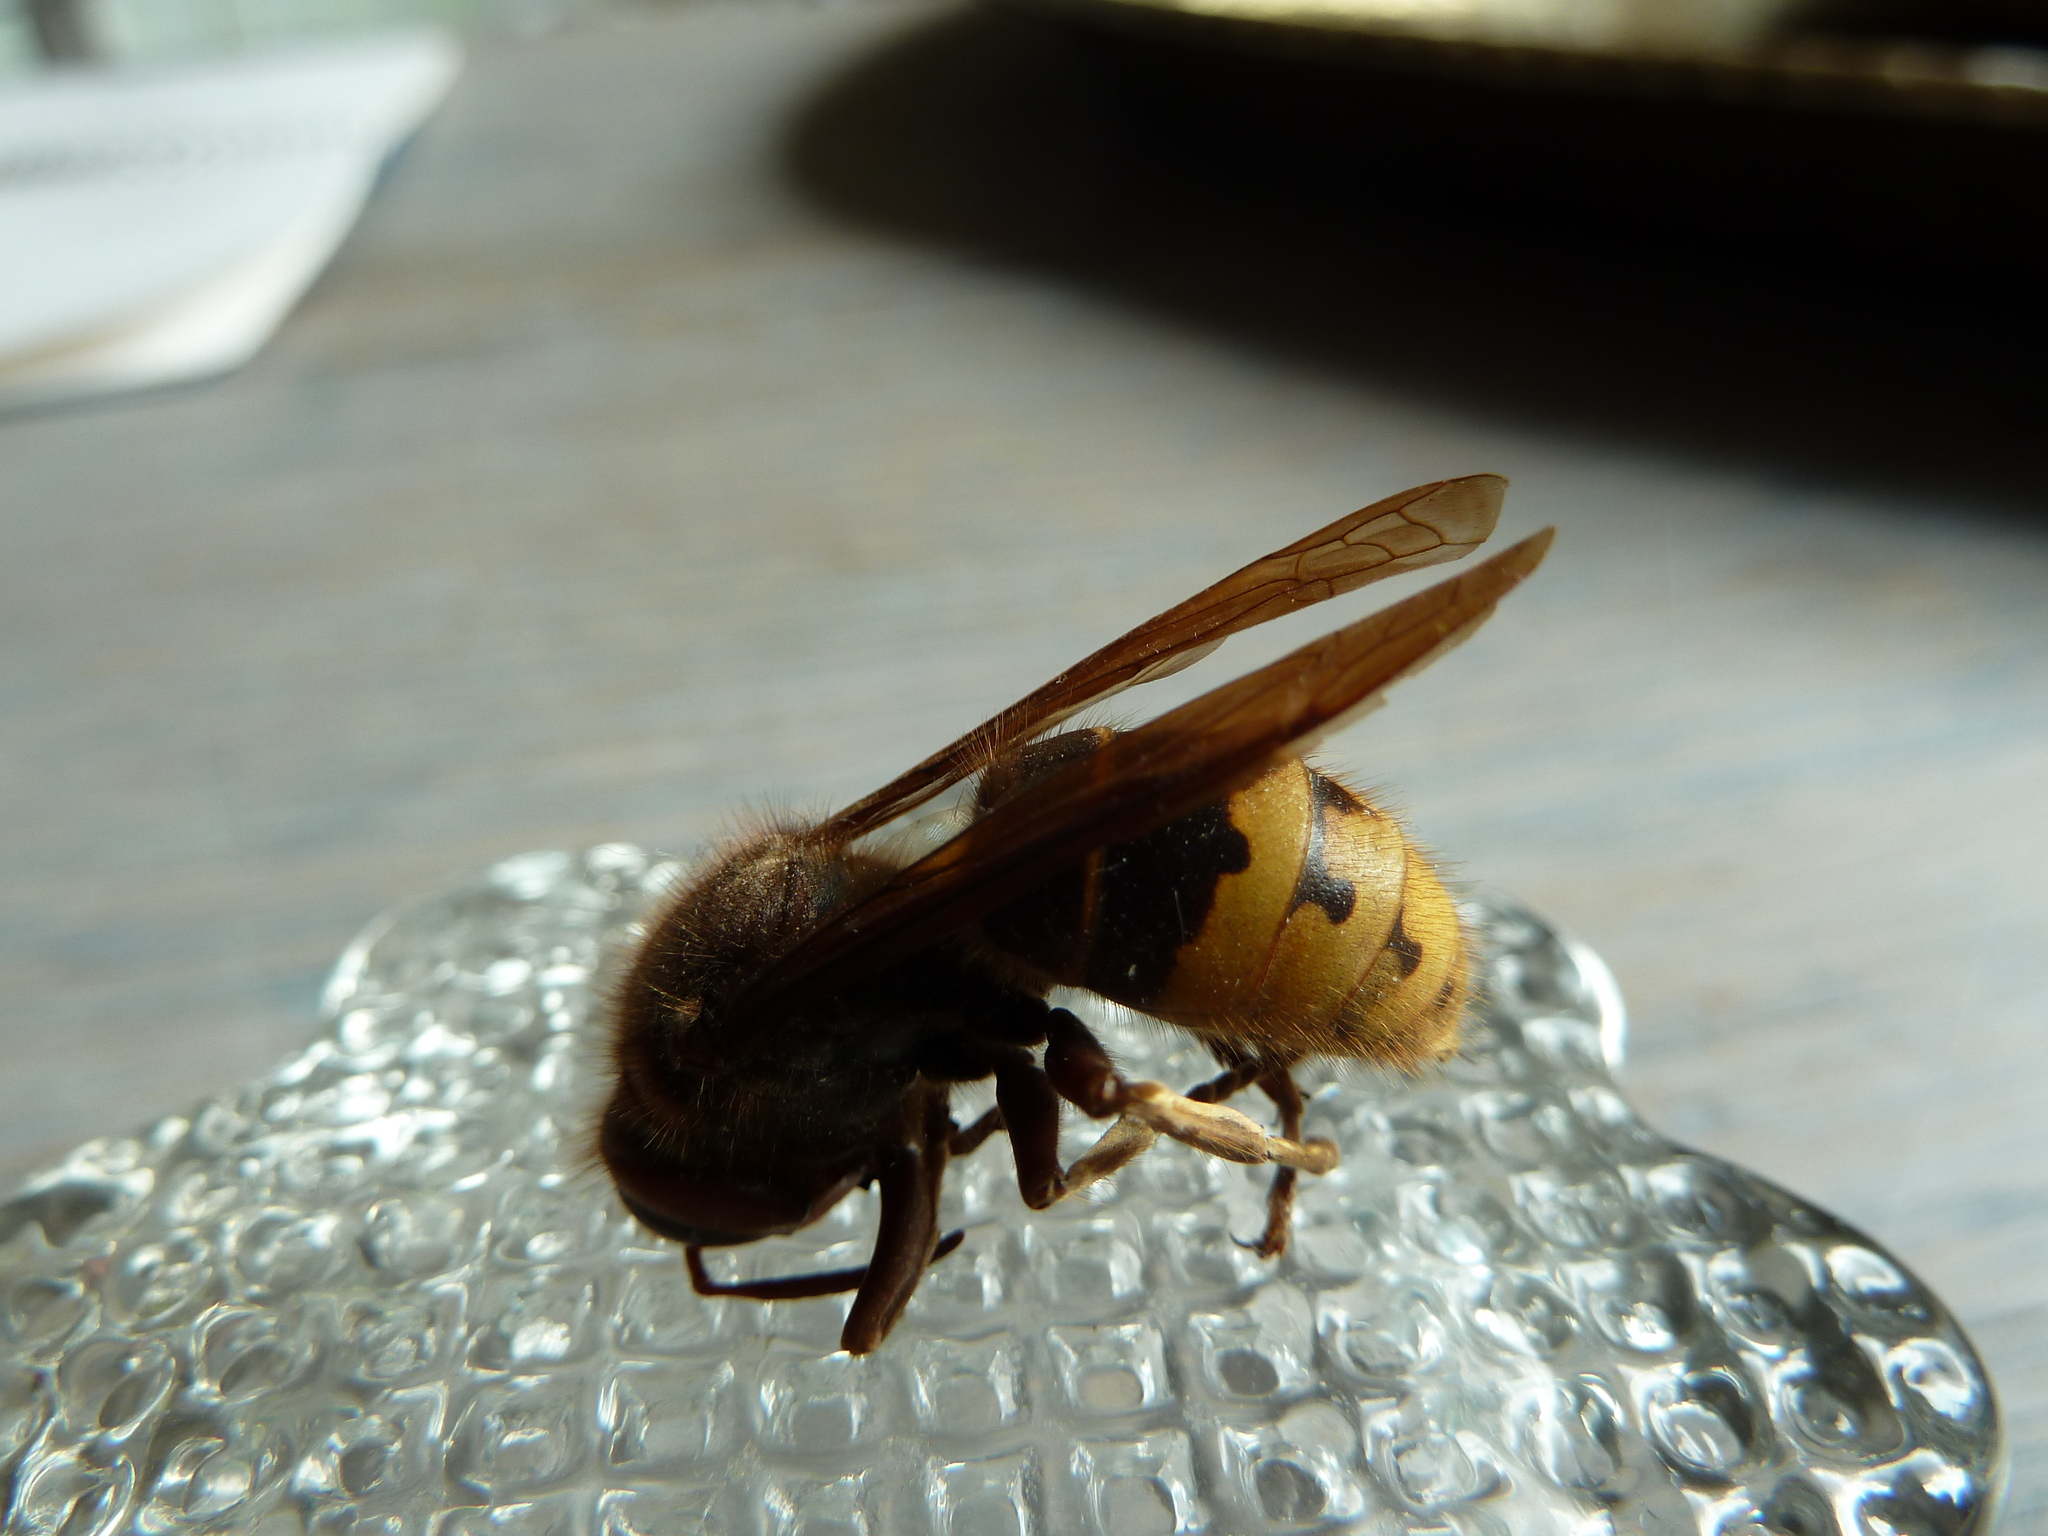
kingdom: Animalia
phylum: Arthropoda
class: Insecta
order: Hymenoptera
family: Vespidae
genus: Vespa
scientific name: Vespa crabro
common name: Hornet
